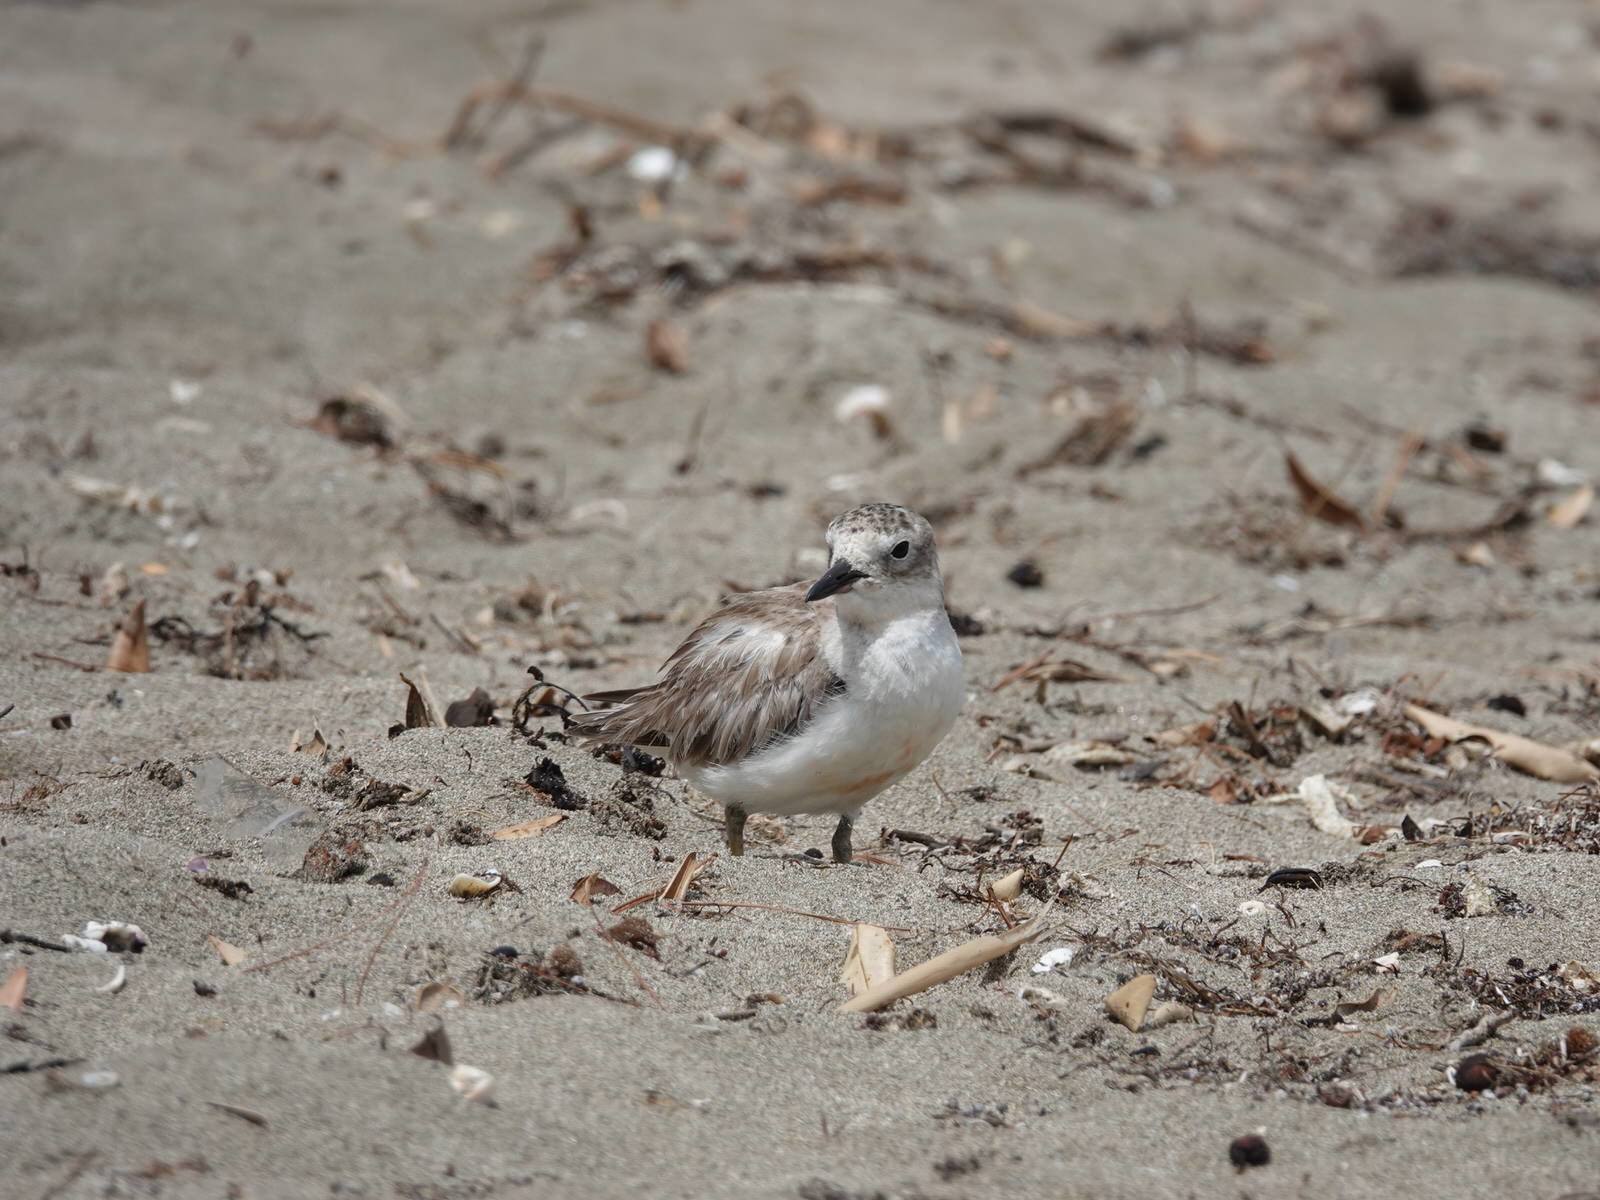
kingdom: Animalia
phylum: Chordata
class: Aves
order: Charadriiformes
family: Charadriidae
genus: Anarhynchus
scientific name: Anarhynchus
